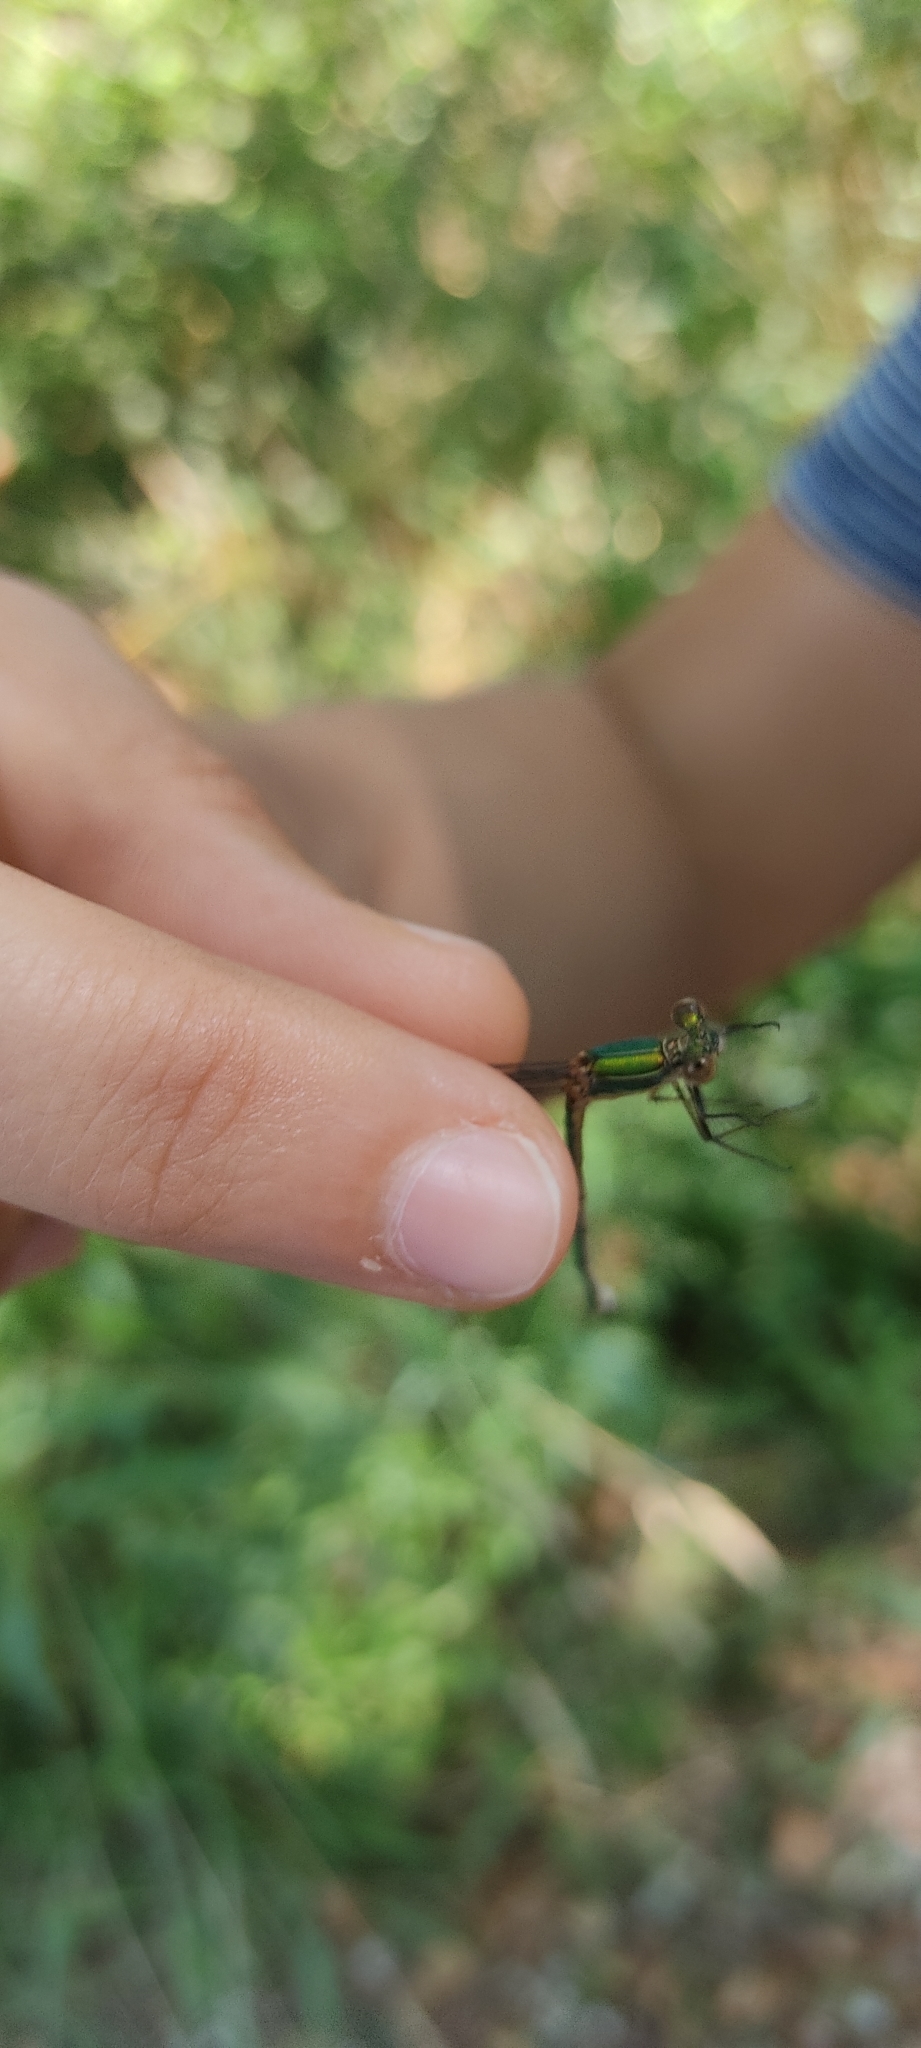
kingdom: Animalia
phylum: Arthropoda
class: Insecta
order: Odonata
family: Lestidae
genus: Chalcolestes
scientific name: Chalcolestes viridis
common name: Green emerald damselfly
